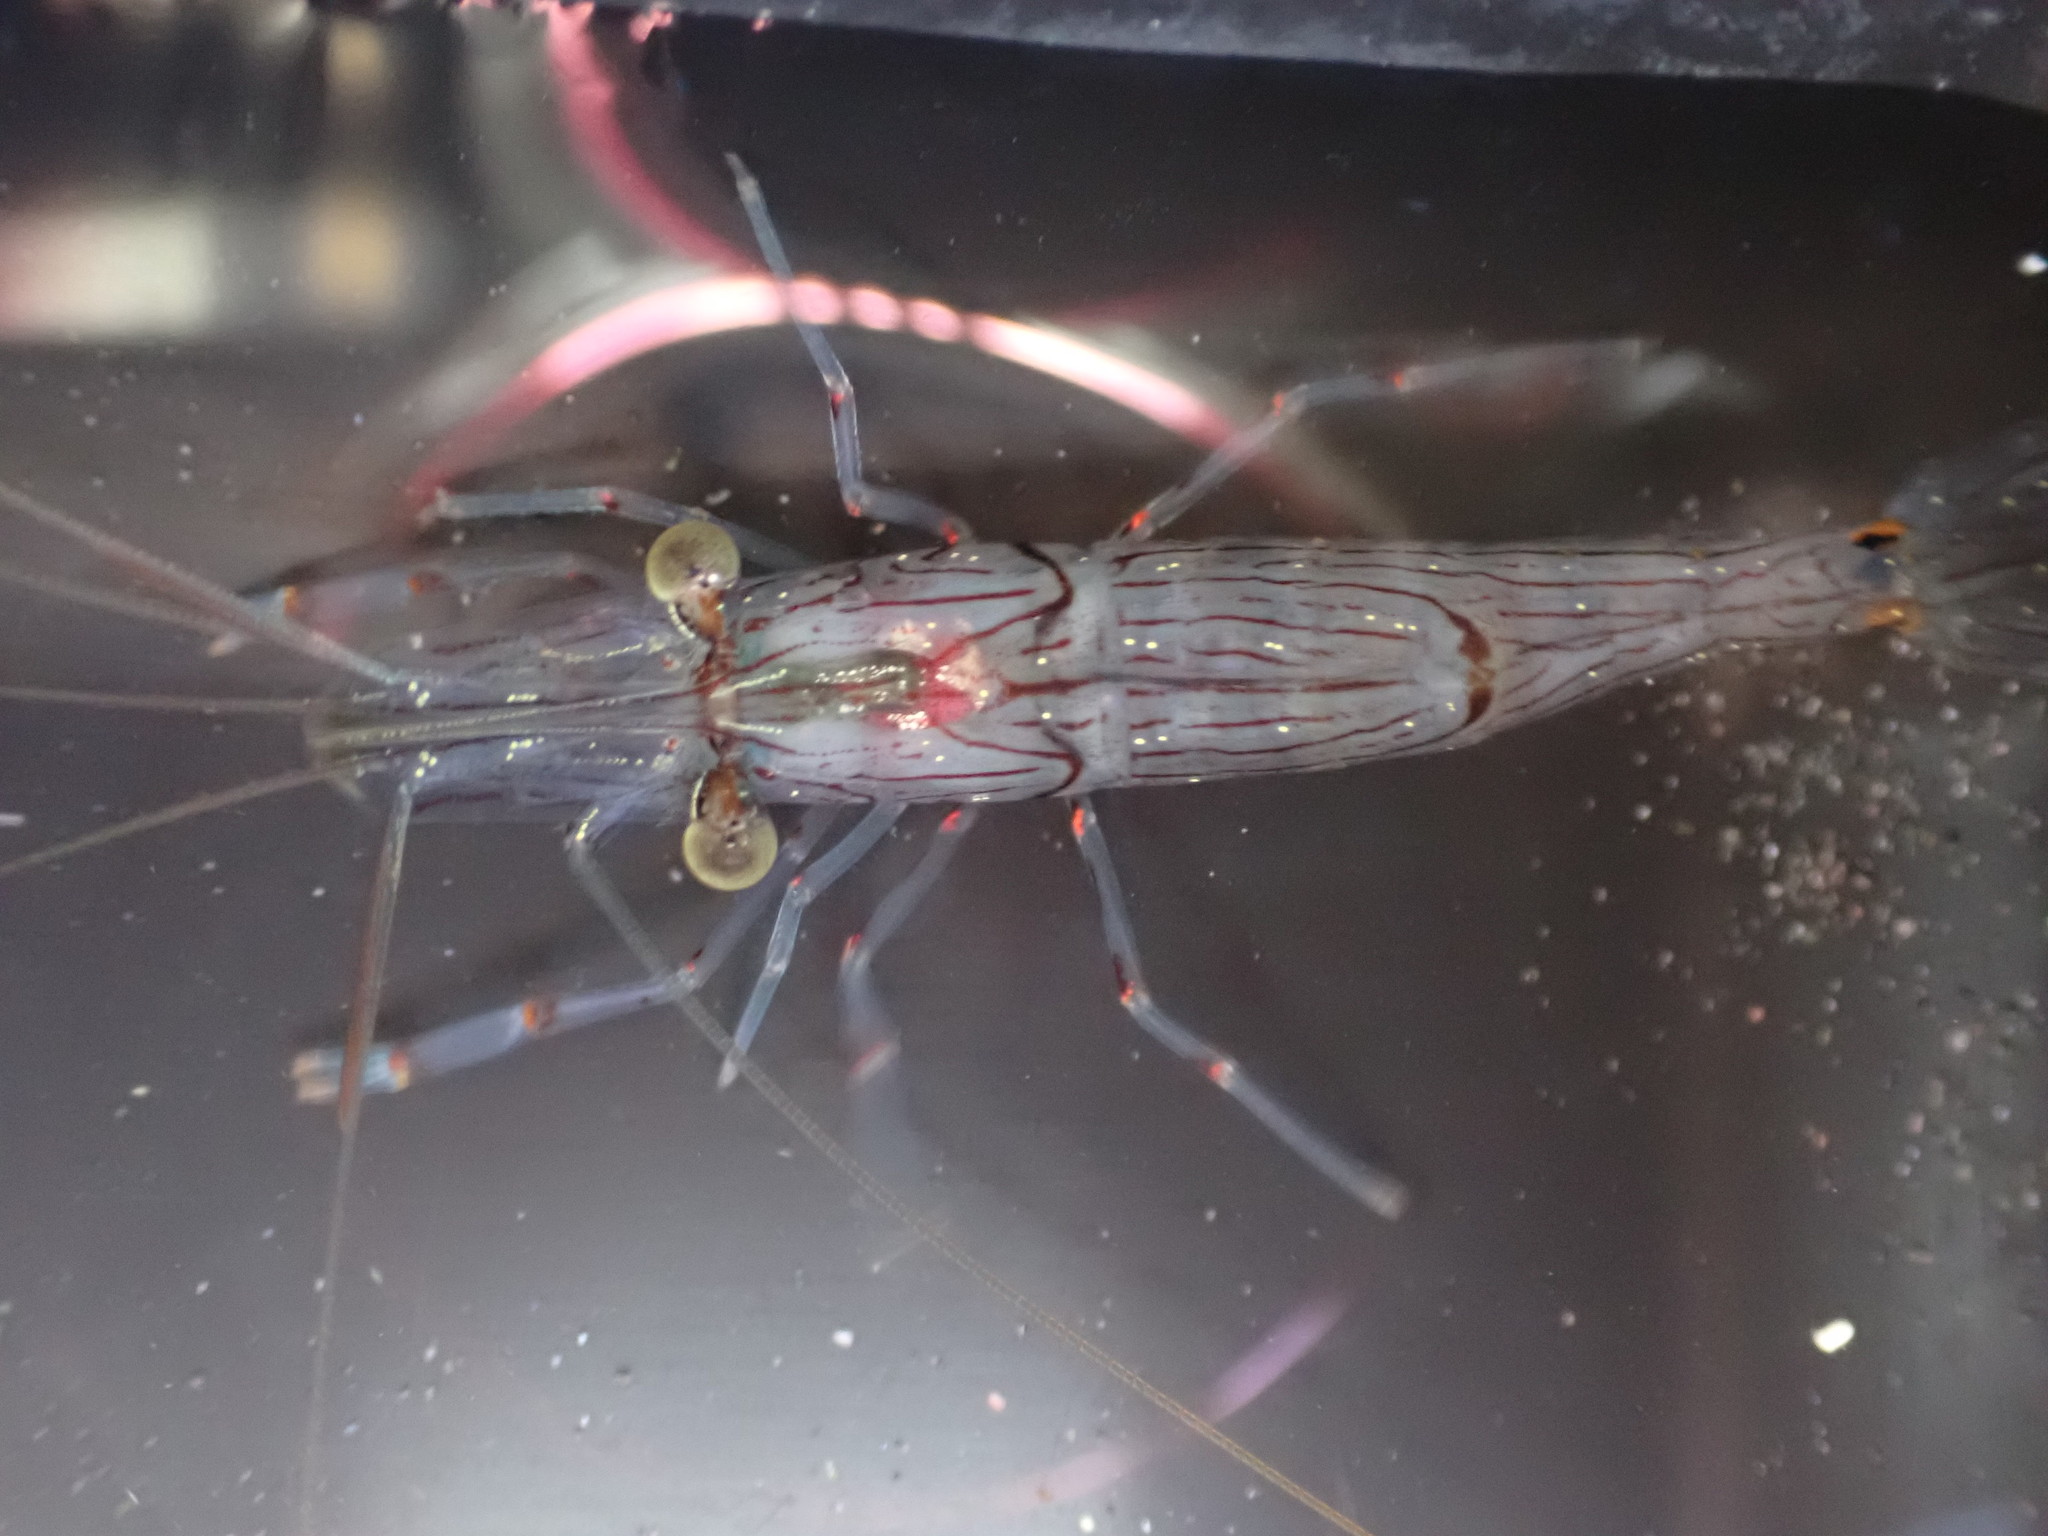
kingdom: Animalia
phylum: Arthropoda
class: Malacostraca
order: Decapoda
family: Palaemonidae
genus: Palaemon
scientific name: Palaemon affinis
